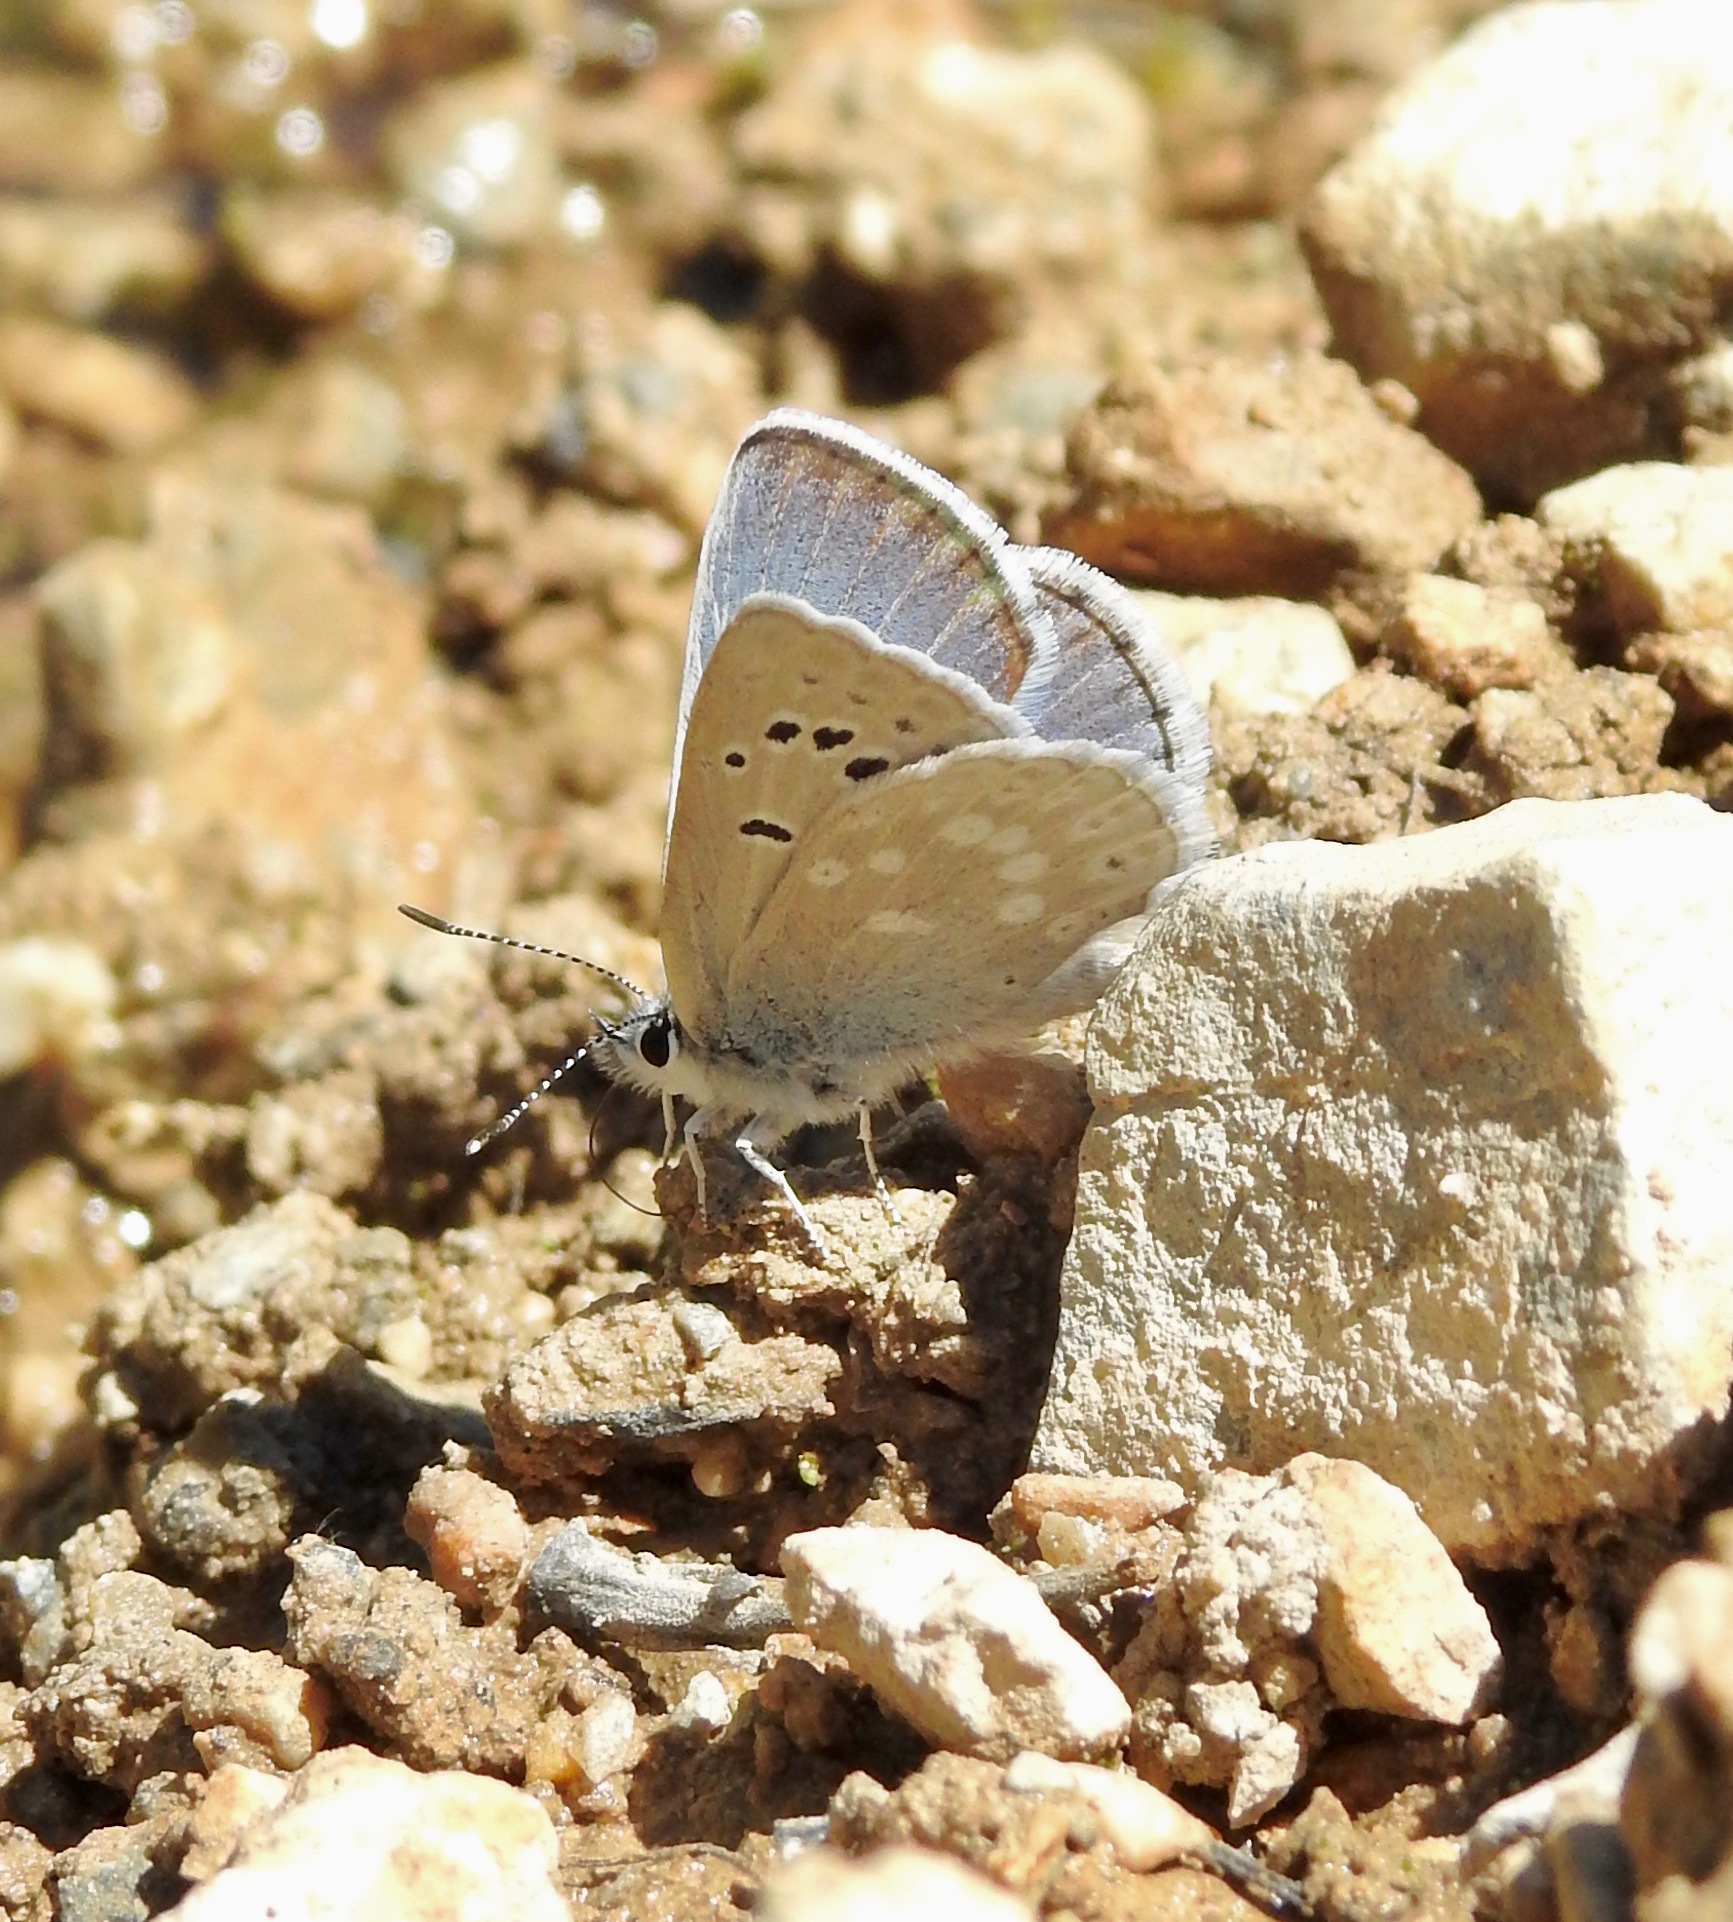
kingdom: Animalia
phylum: Arthropoda
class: Insecta
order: Lepidoptera
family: Lycaenidae
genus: Icaricia
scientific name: Icaricia icarioides
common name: Boisduval's blue
